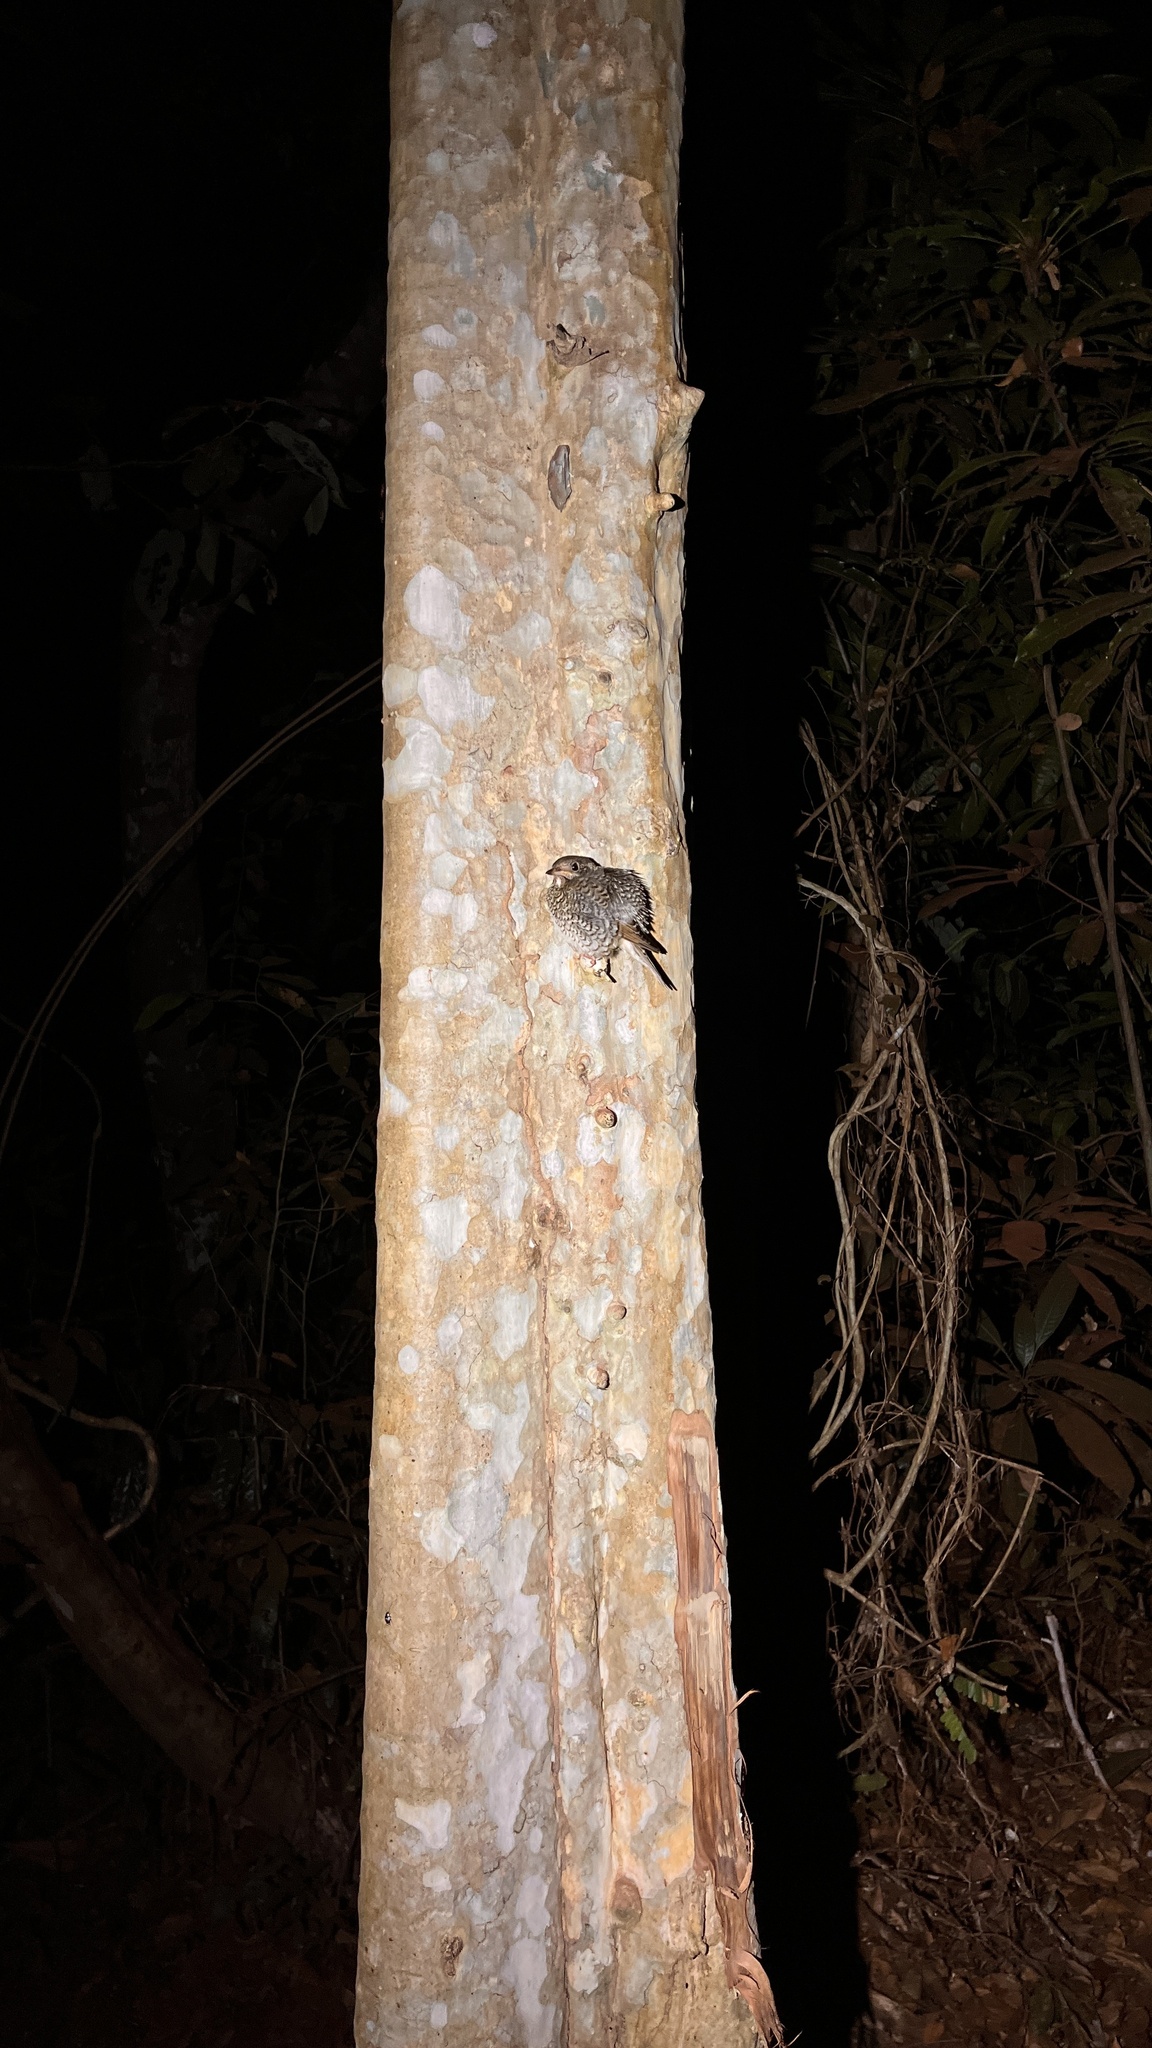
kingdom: Animalia
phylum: Chordata
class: Aves
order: Passeriformes
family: Muscicapidae
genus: Monticola
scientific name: Monticola gularis
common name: White-throated rock thrush
